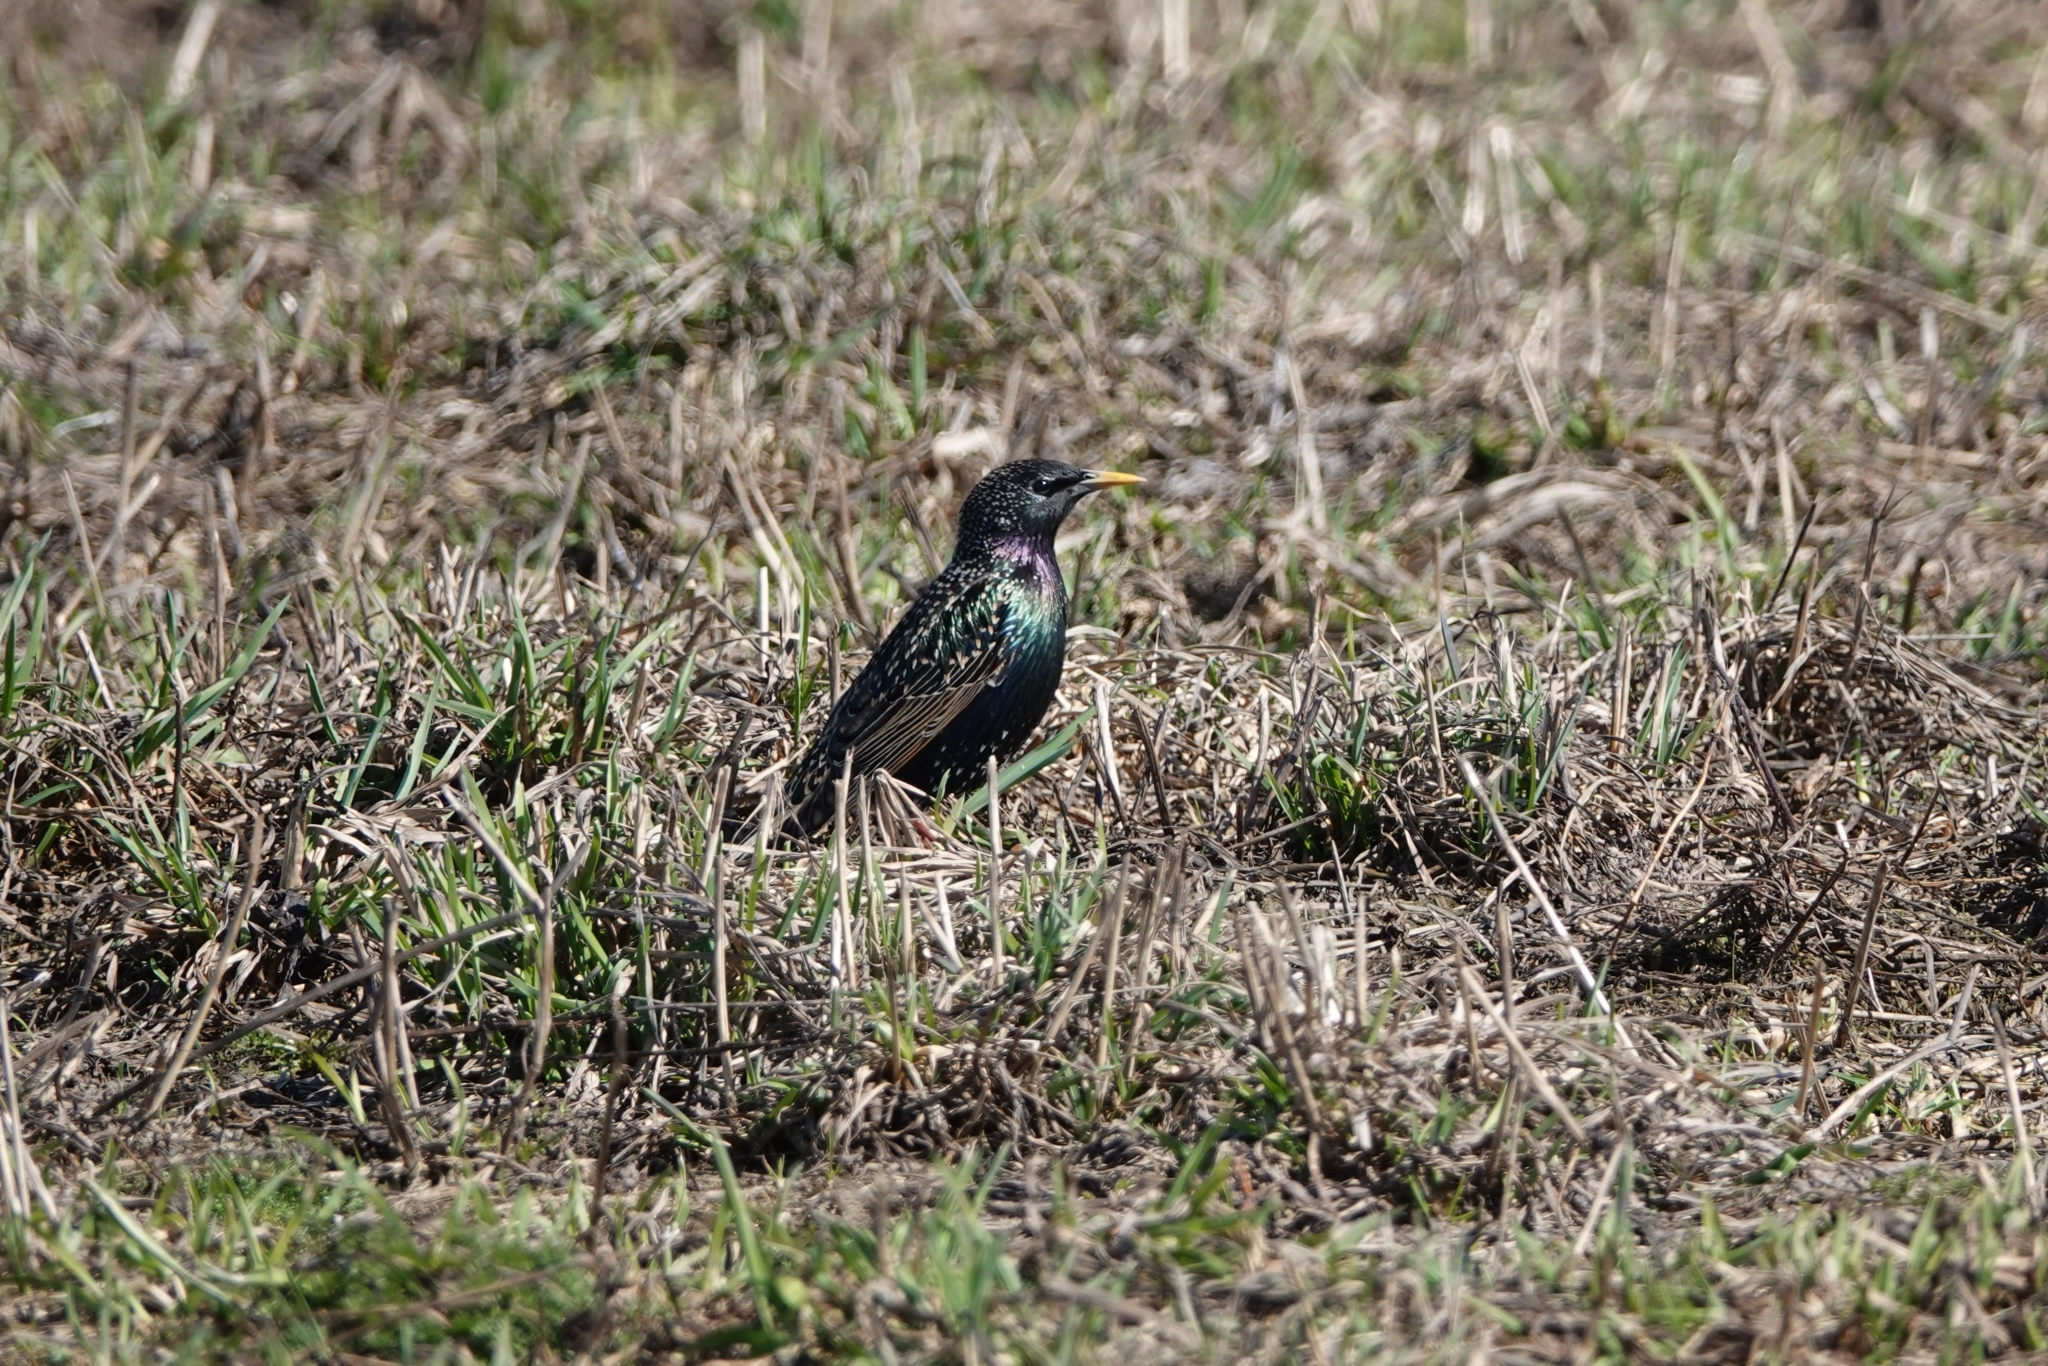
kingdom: Animalia
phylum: Chordata
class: Aves
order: Passeriformes
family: Sturnidae
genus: Sturnus
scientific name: Sturnus vulgaris
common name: Common starling
